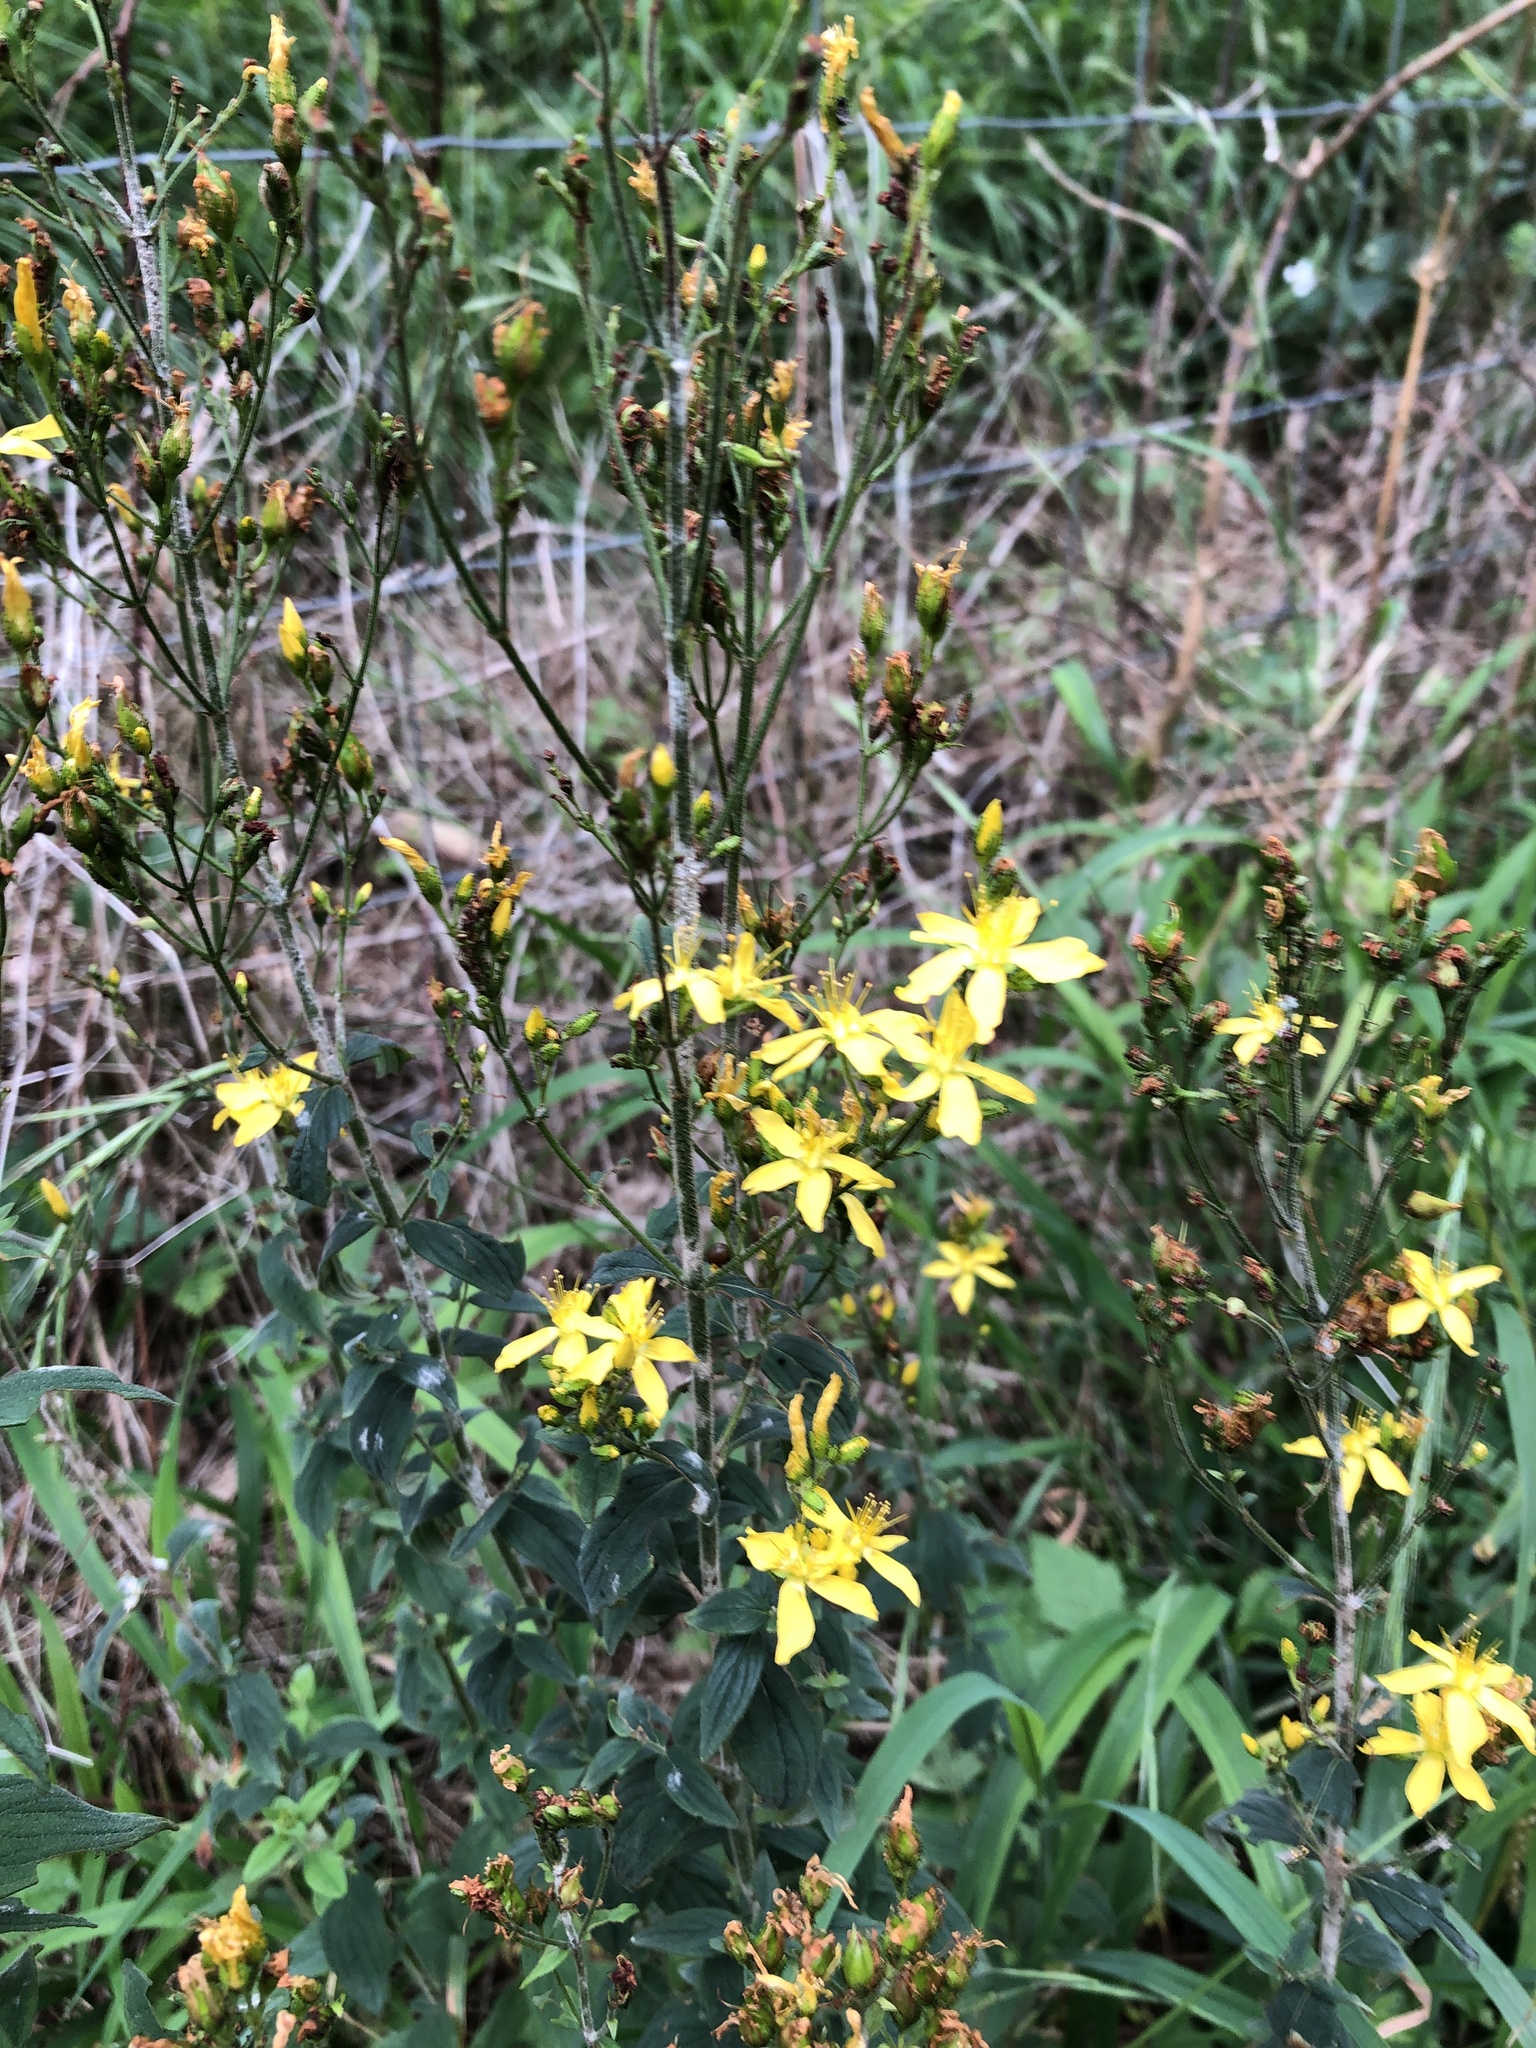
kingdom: Plantae
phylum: Tracheophyta
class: Magnoliopsida
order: Malpighiales
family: Hypericaceae
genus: Hypericum
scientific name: Hypericum hirsutum
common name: Hairy st. john's-wort
